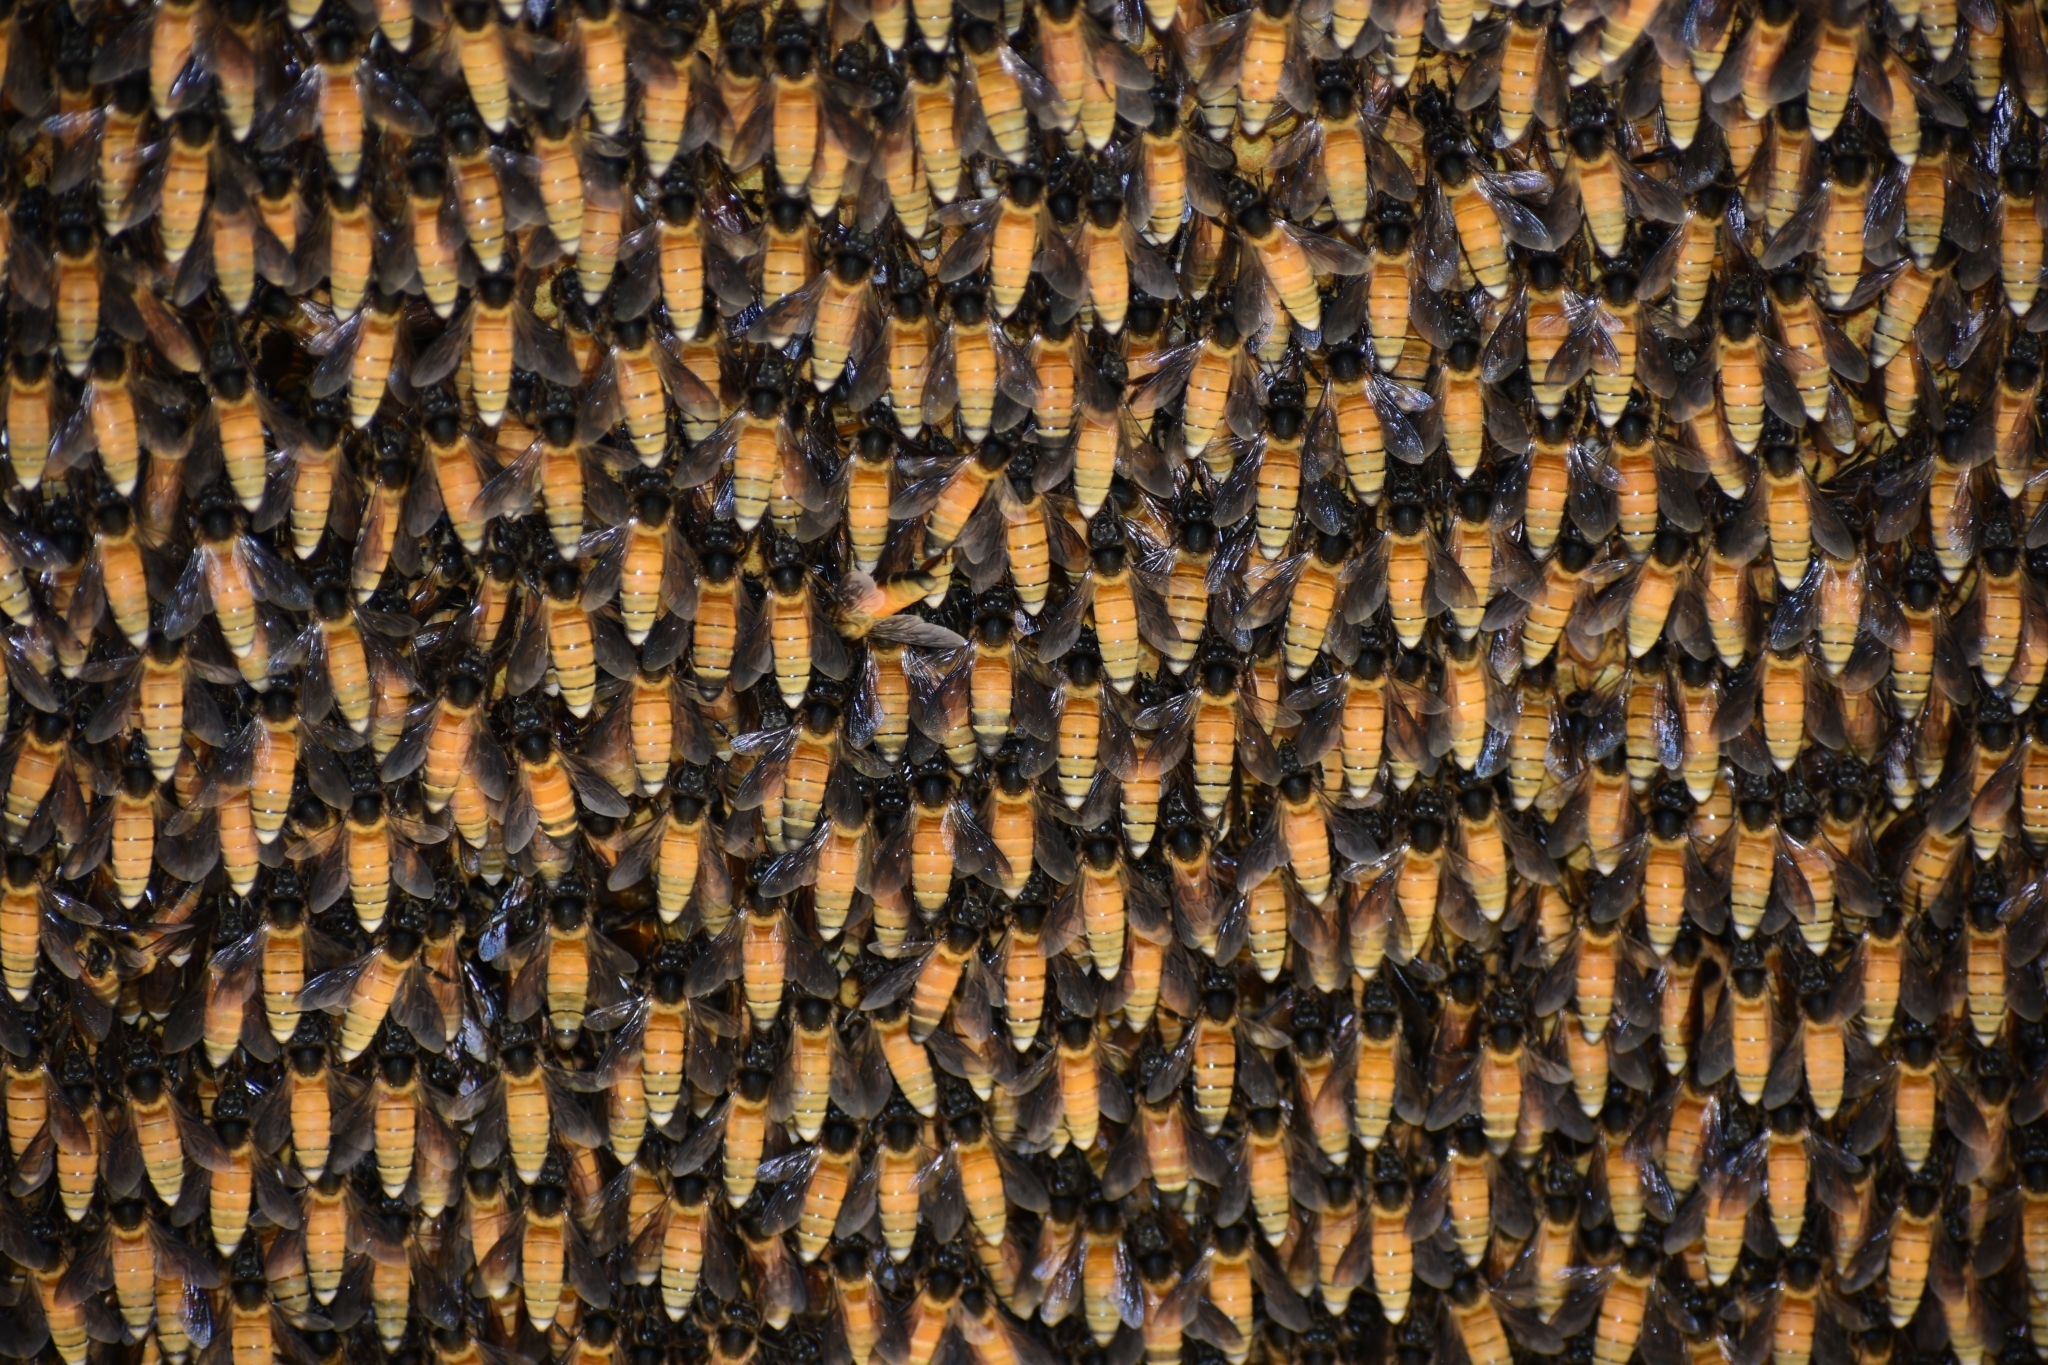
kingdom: Animalia
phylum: Arthropoda
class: Insecta
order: Hymenoptera
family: Apidae
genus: Apis
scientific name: Apis dorsata
